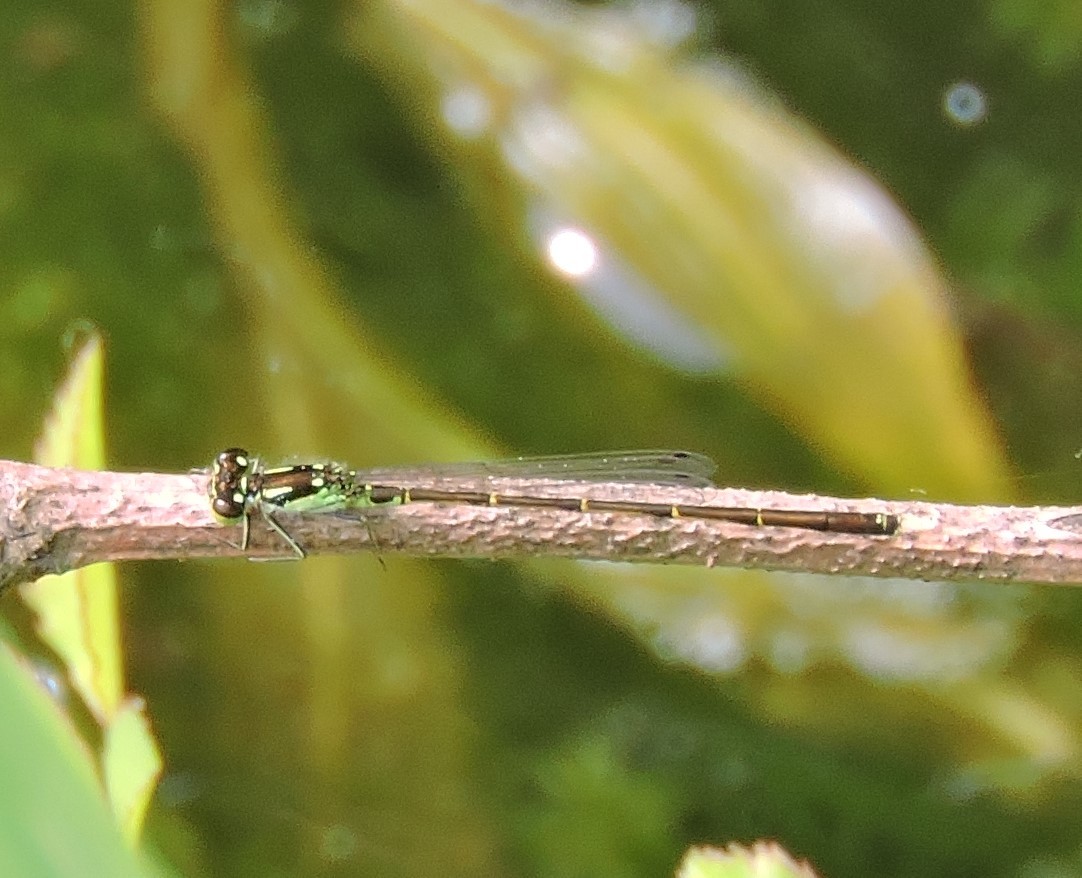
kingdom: Animalia
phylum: Arthropoda
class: Insecta
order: Odonata
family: Coenagrionidae
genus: Ischnura
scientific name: Ischnura posita
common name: Fragile forktail
